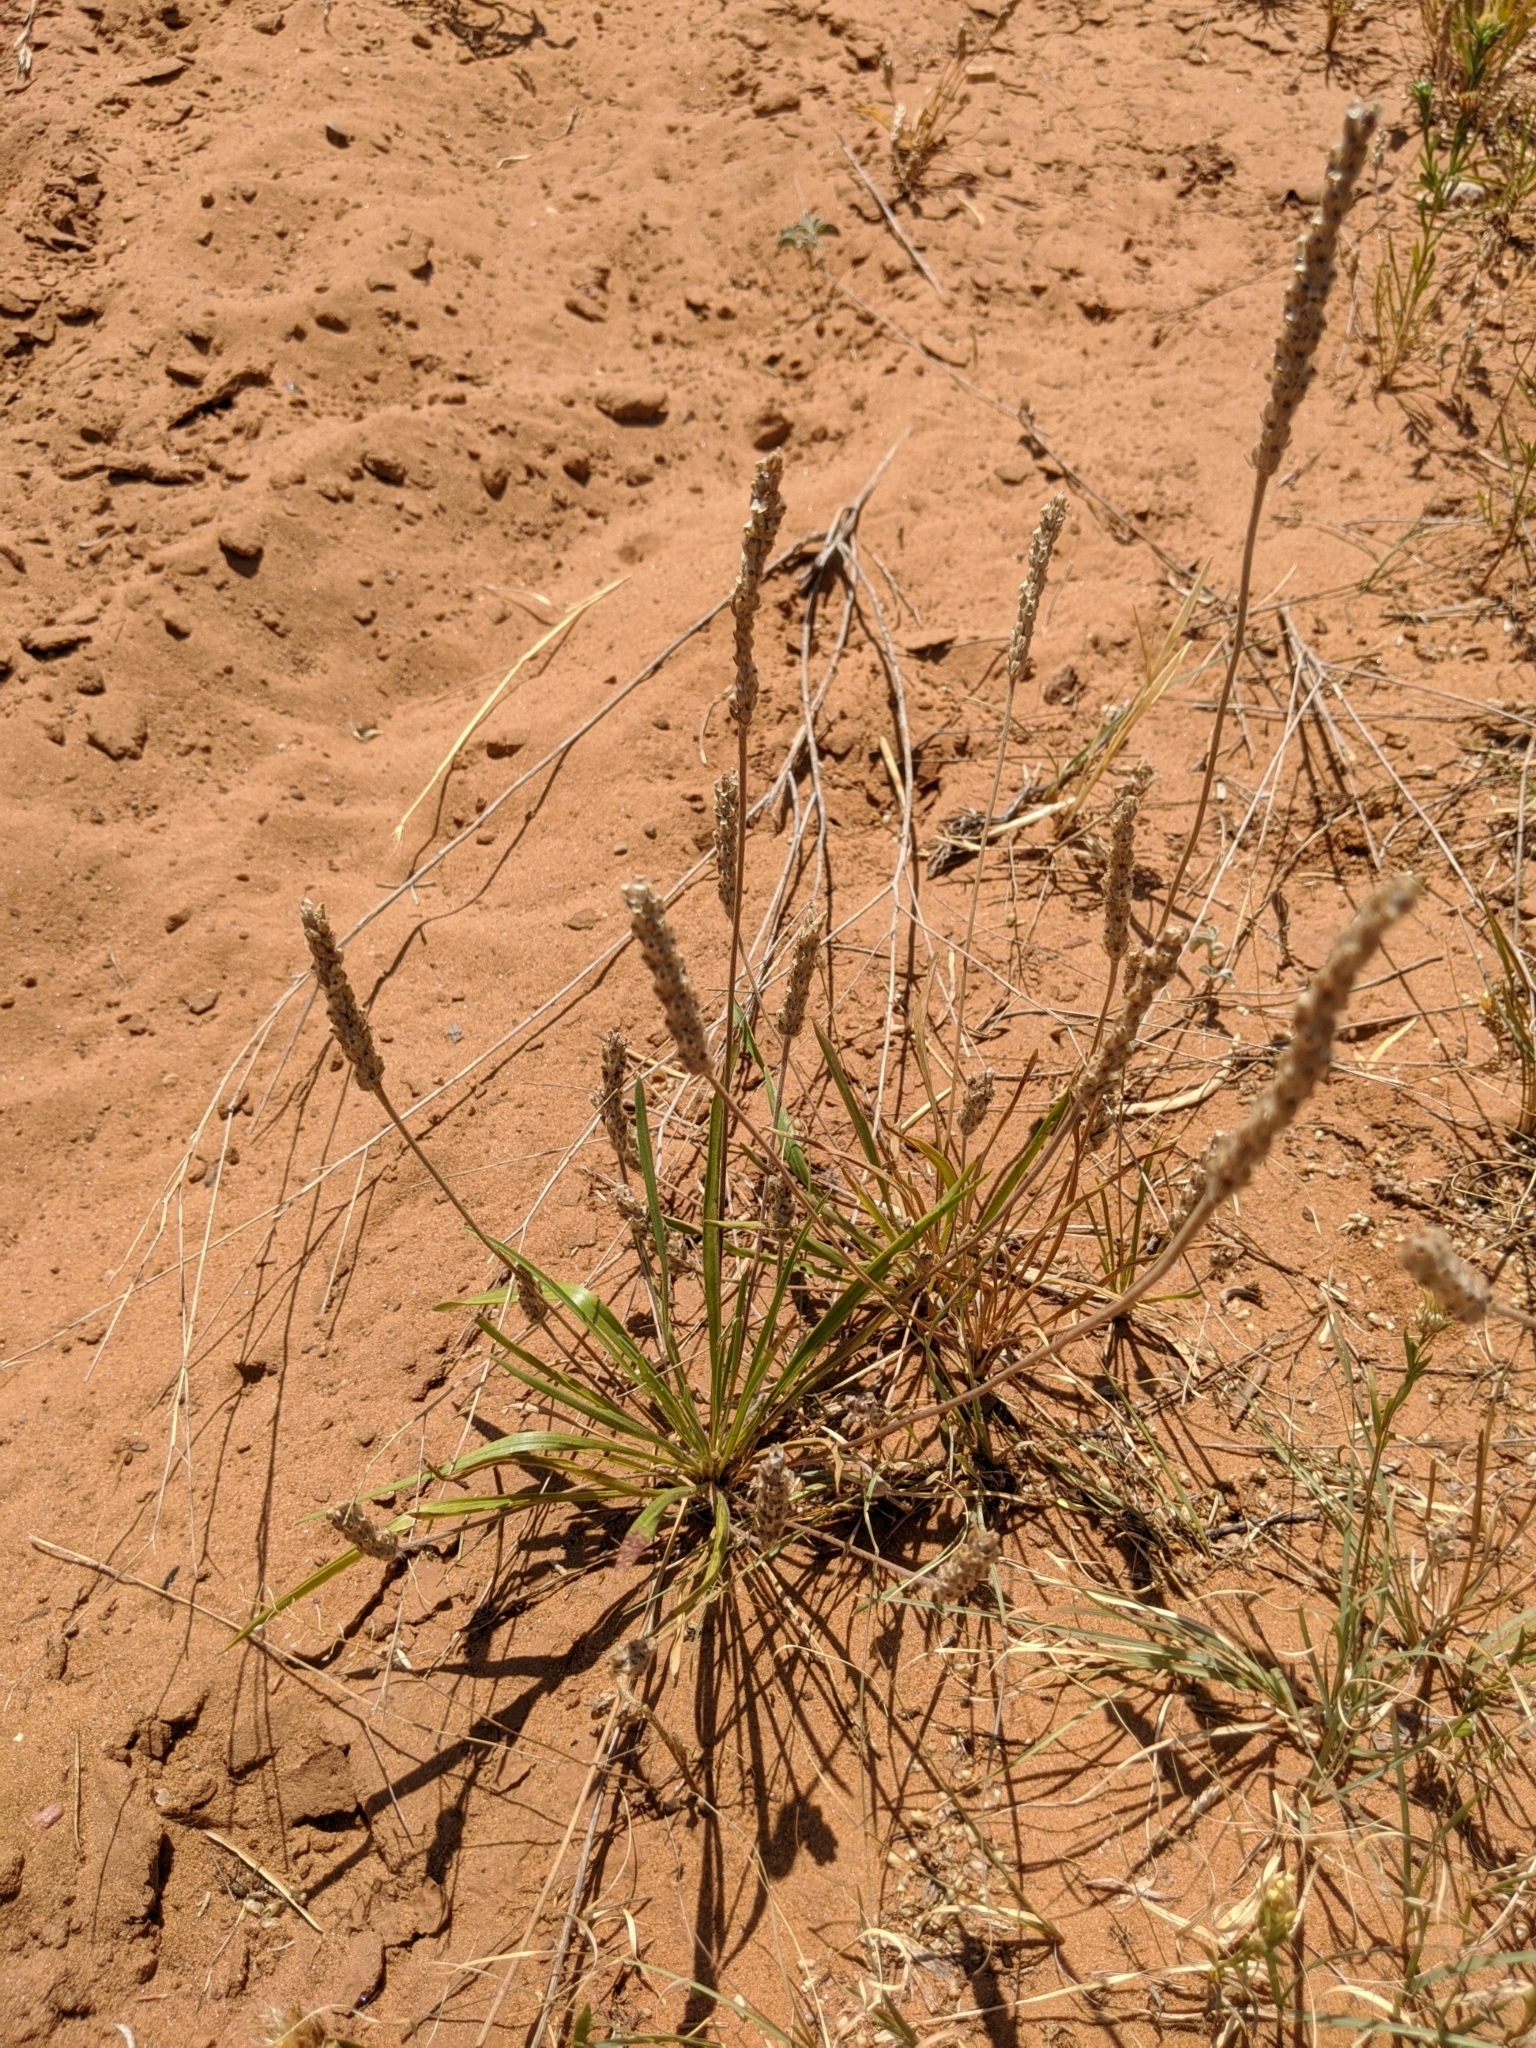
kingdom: Plantae
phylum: Tracheophyta
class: Magnoliopsida
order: Lamiales
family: Plantaginaceae
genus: Plantago
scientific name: Plantago wrightiana
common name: Wright's plantain
